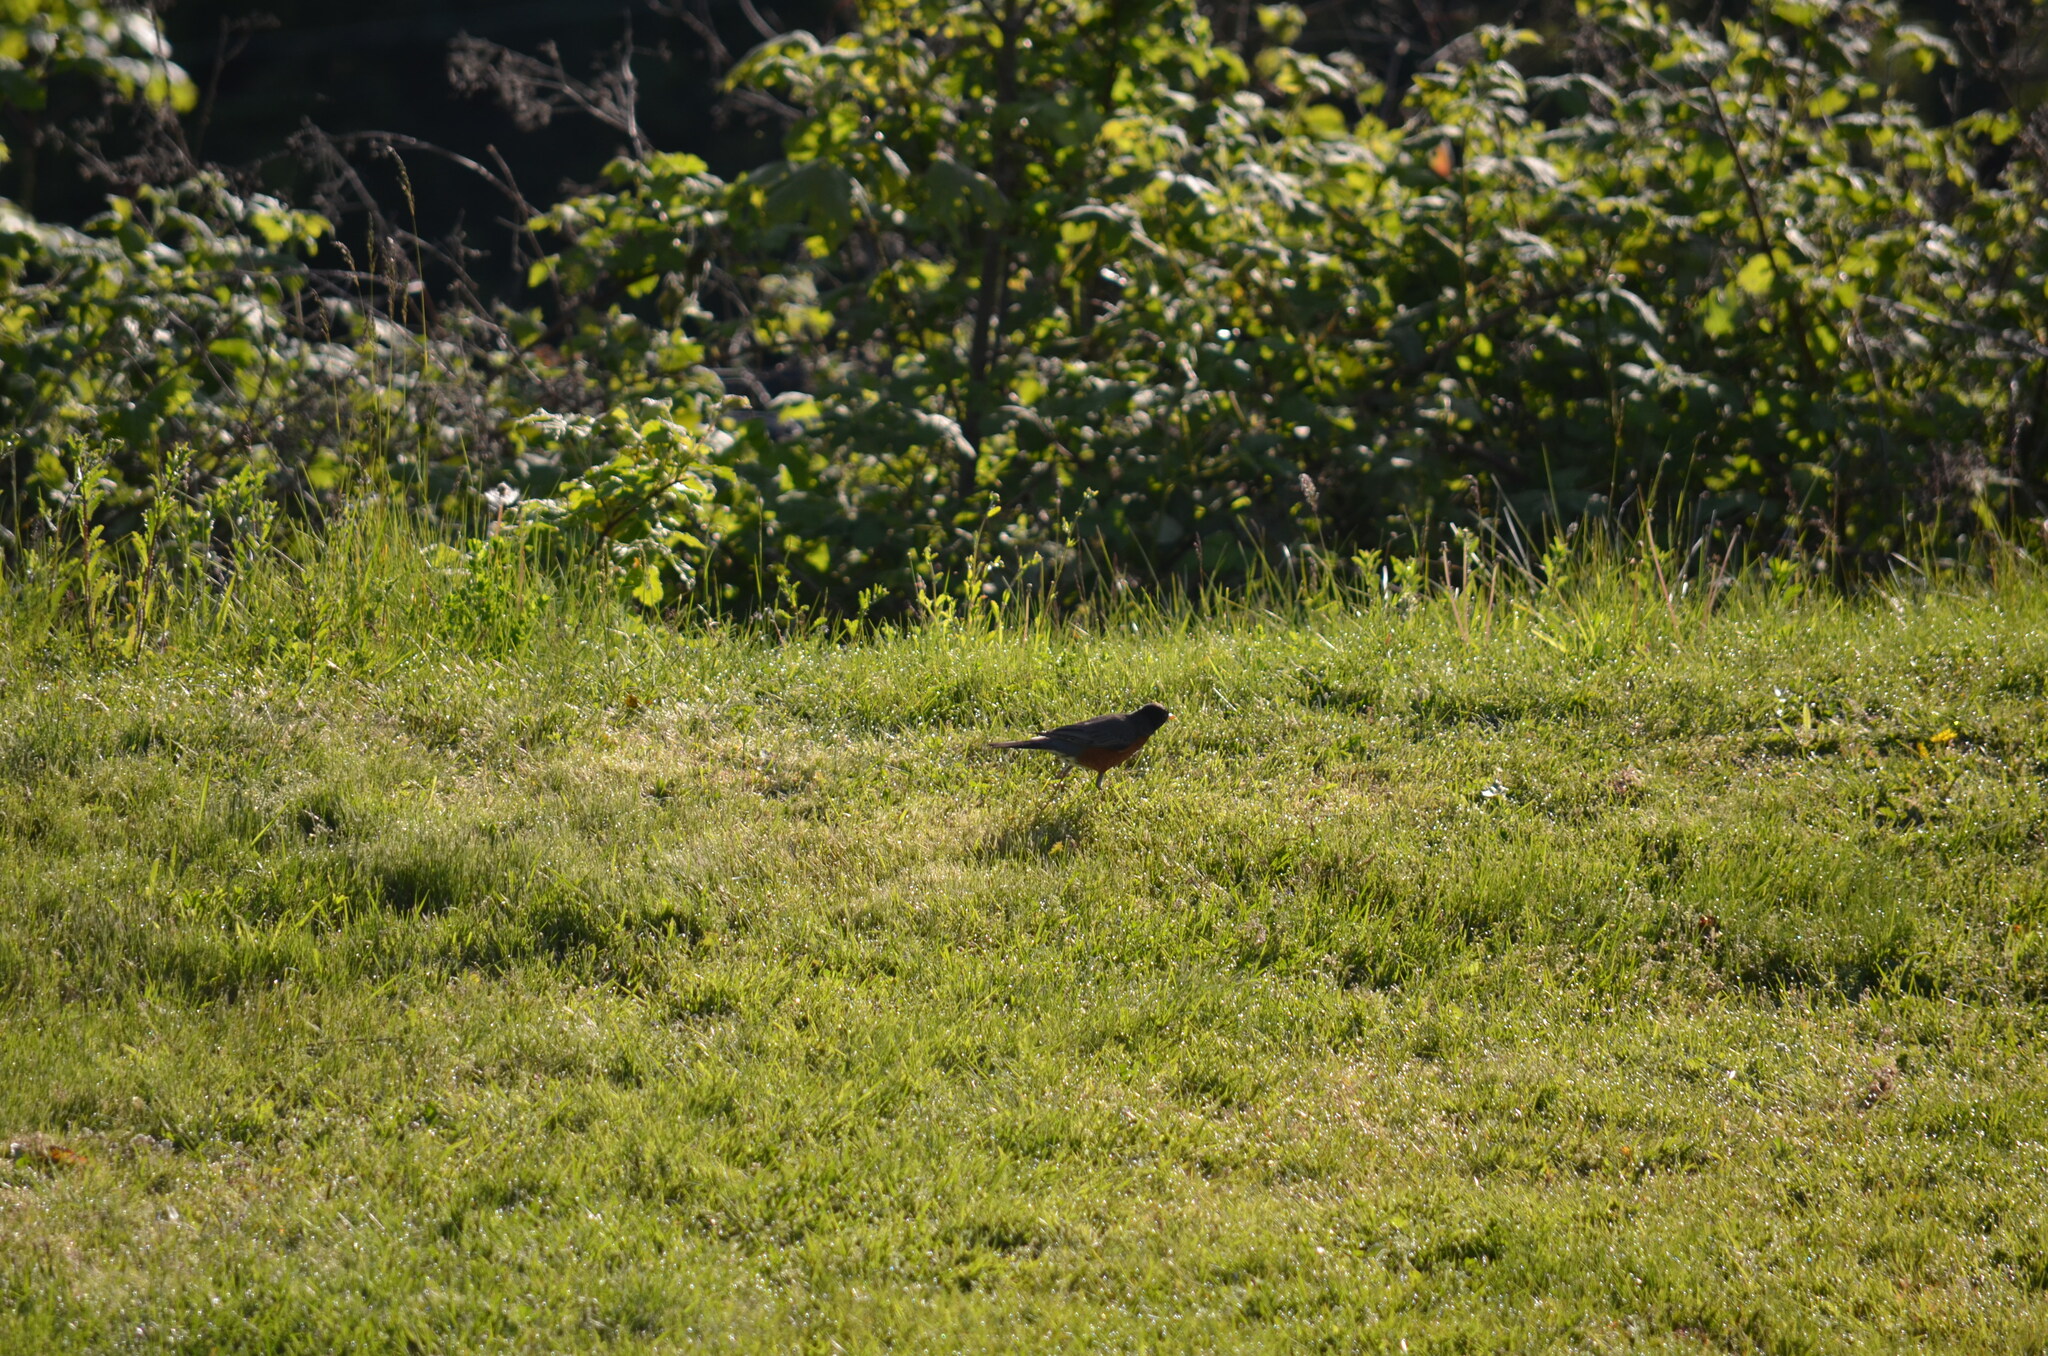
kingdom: Animalia
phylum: Chordata
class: Aves
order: Passeriformes
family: Turdidae
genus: Turdus
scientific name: Turdus migratorius
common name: American robin
